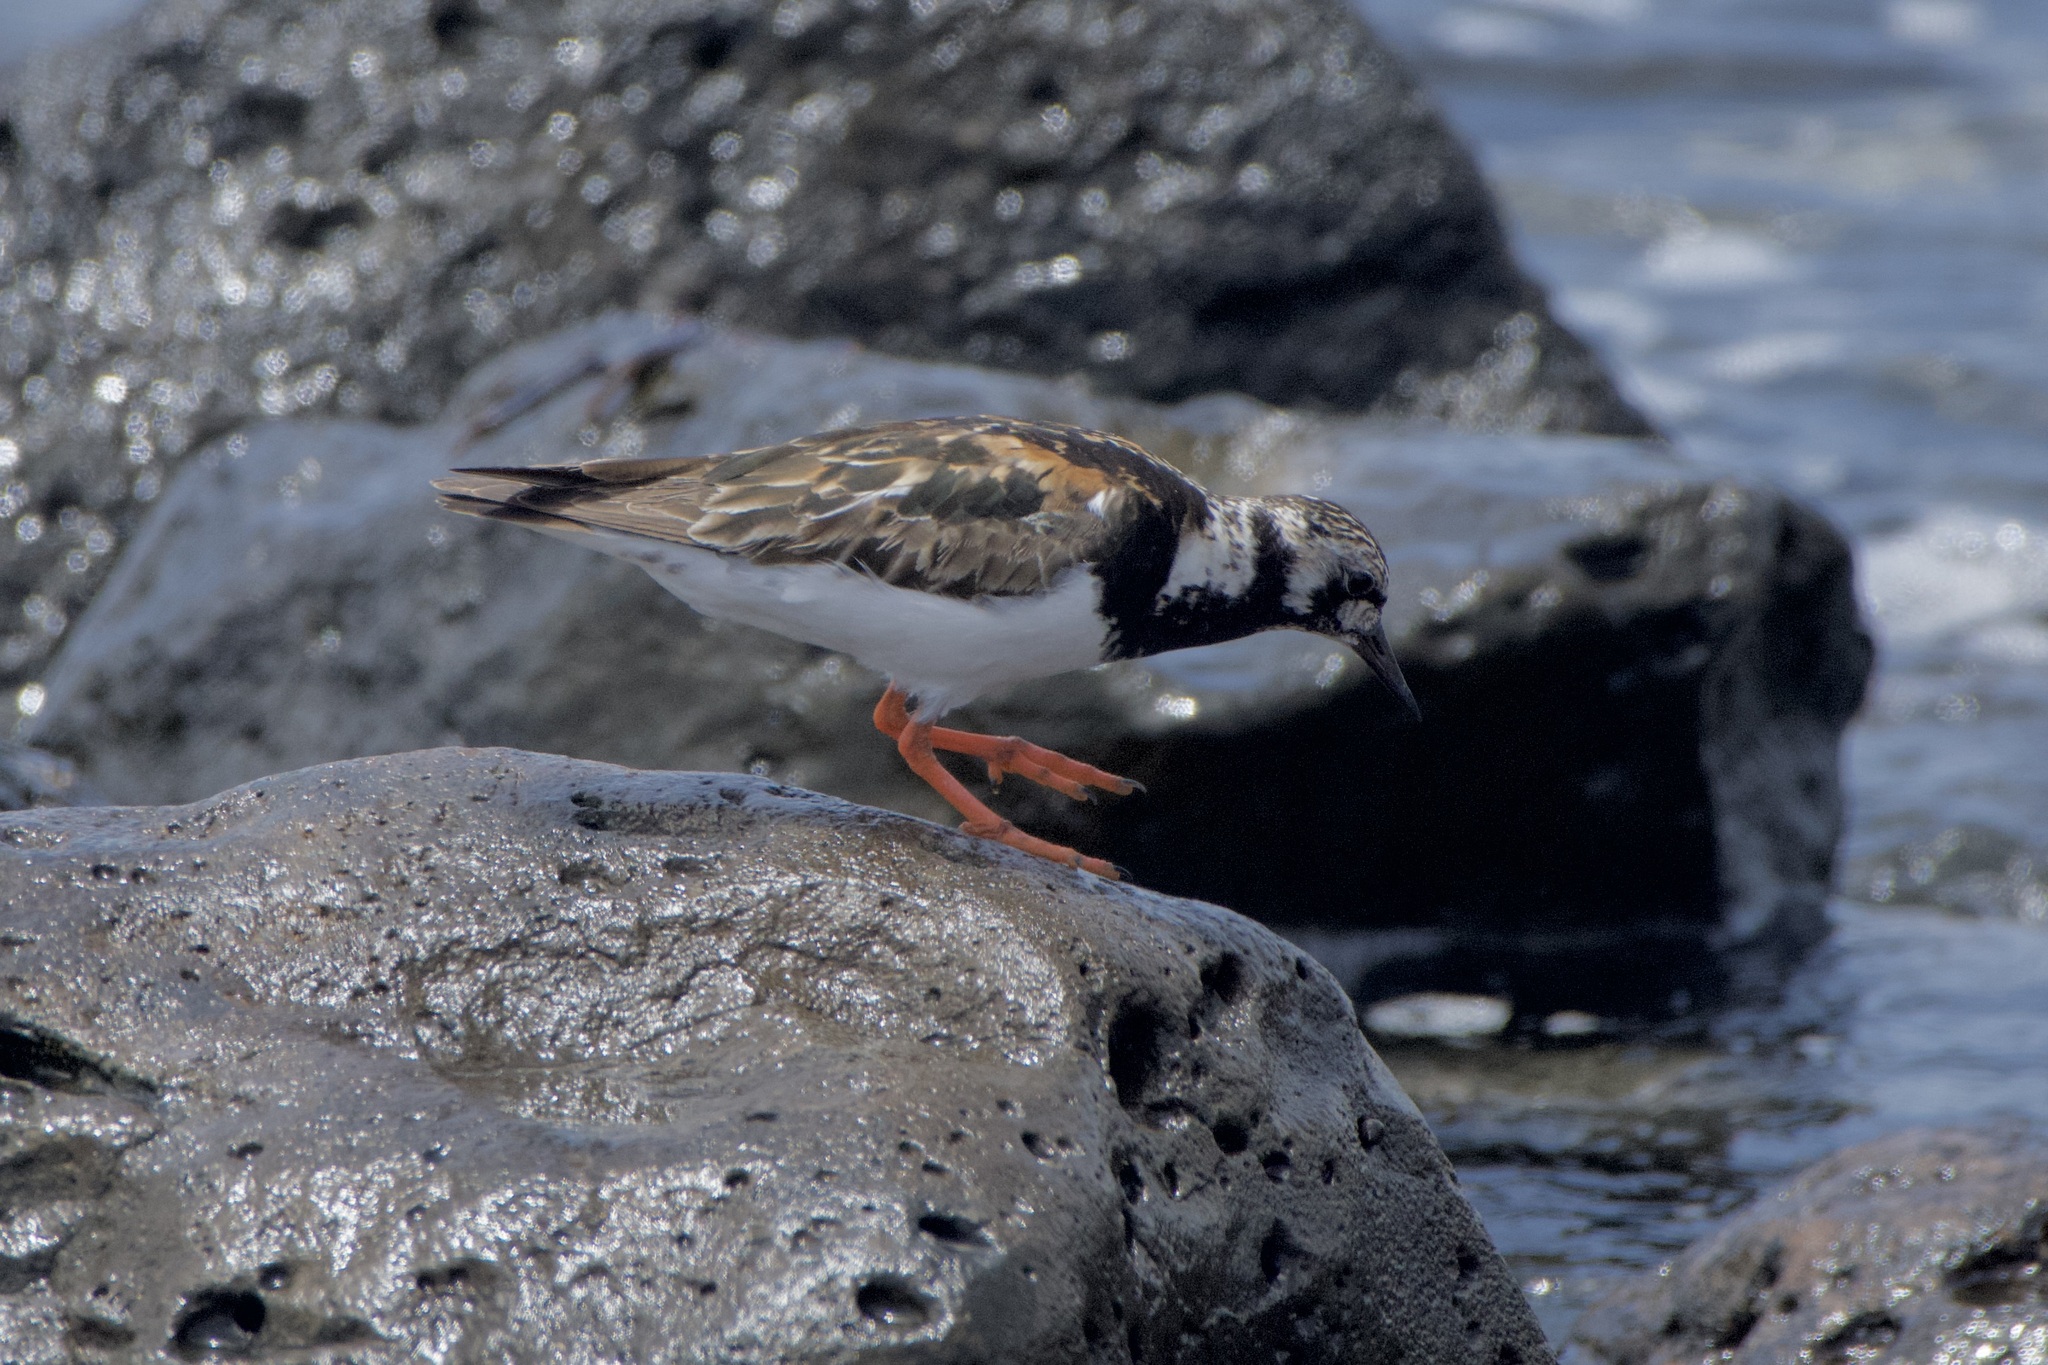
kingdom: Animalia
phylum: Chordata
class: Aves
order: Charadriiformes
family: Scolopacidae
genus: Arenaria
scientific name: Arenaria interpres
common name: Ruddy turnstone
